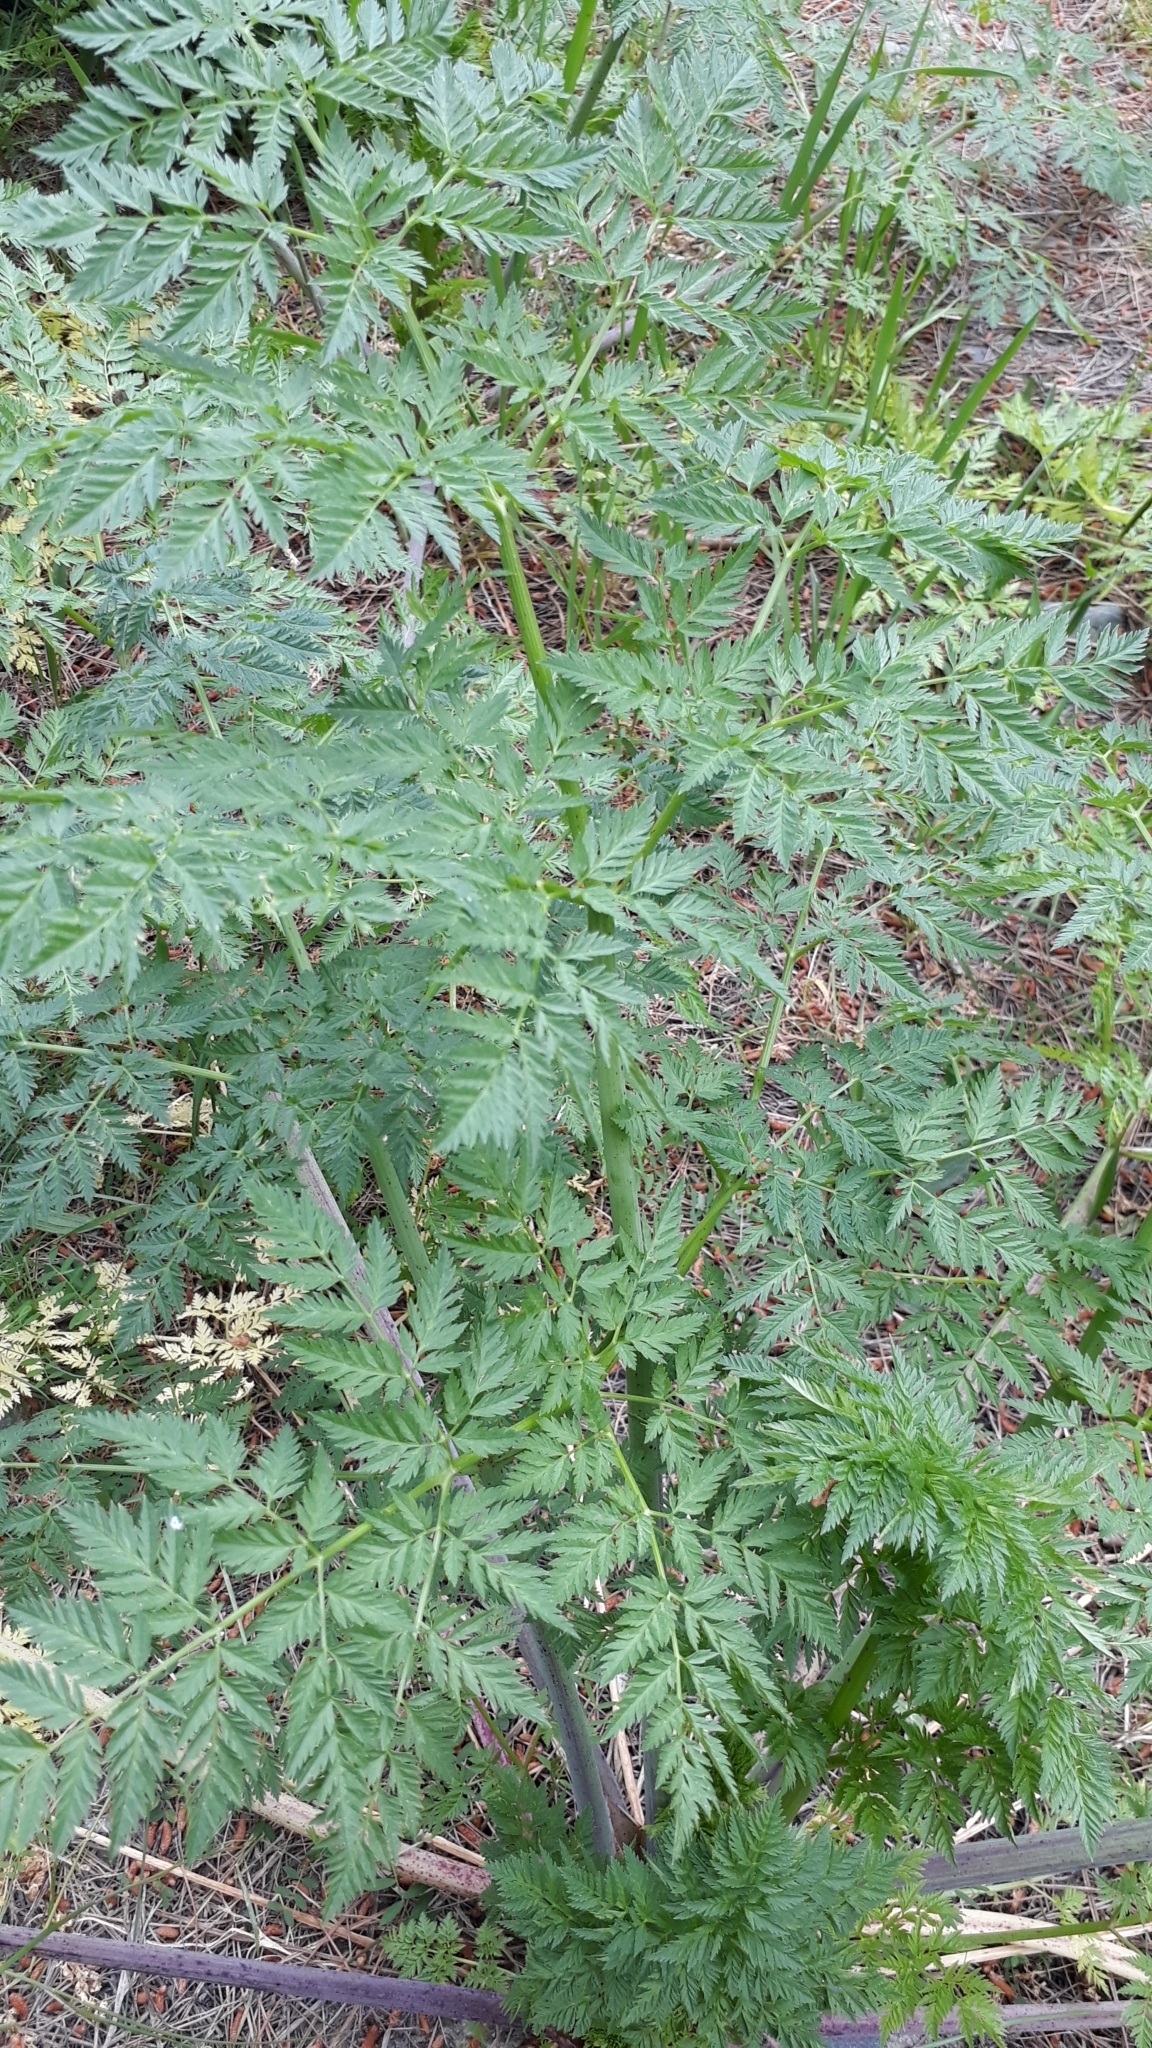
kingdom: Plantae
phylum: Tracheophyta
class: Magnoliopsida
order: Apiales
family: Apiaceae
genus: Conium
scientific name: Conium maculatum
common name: Hemlock
